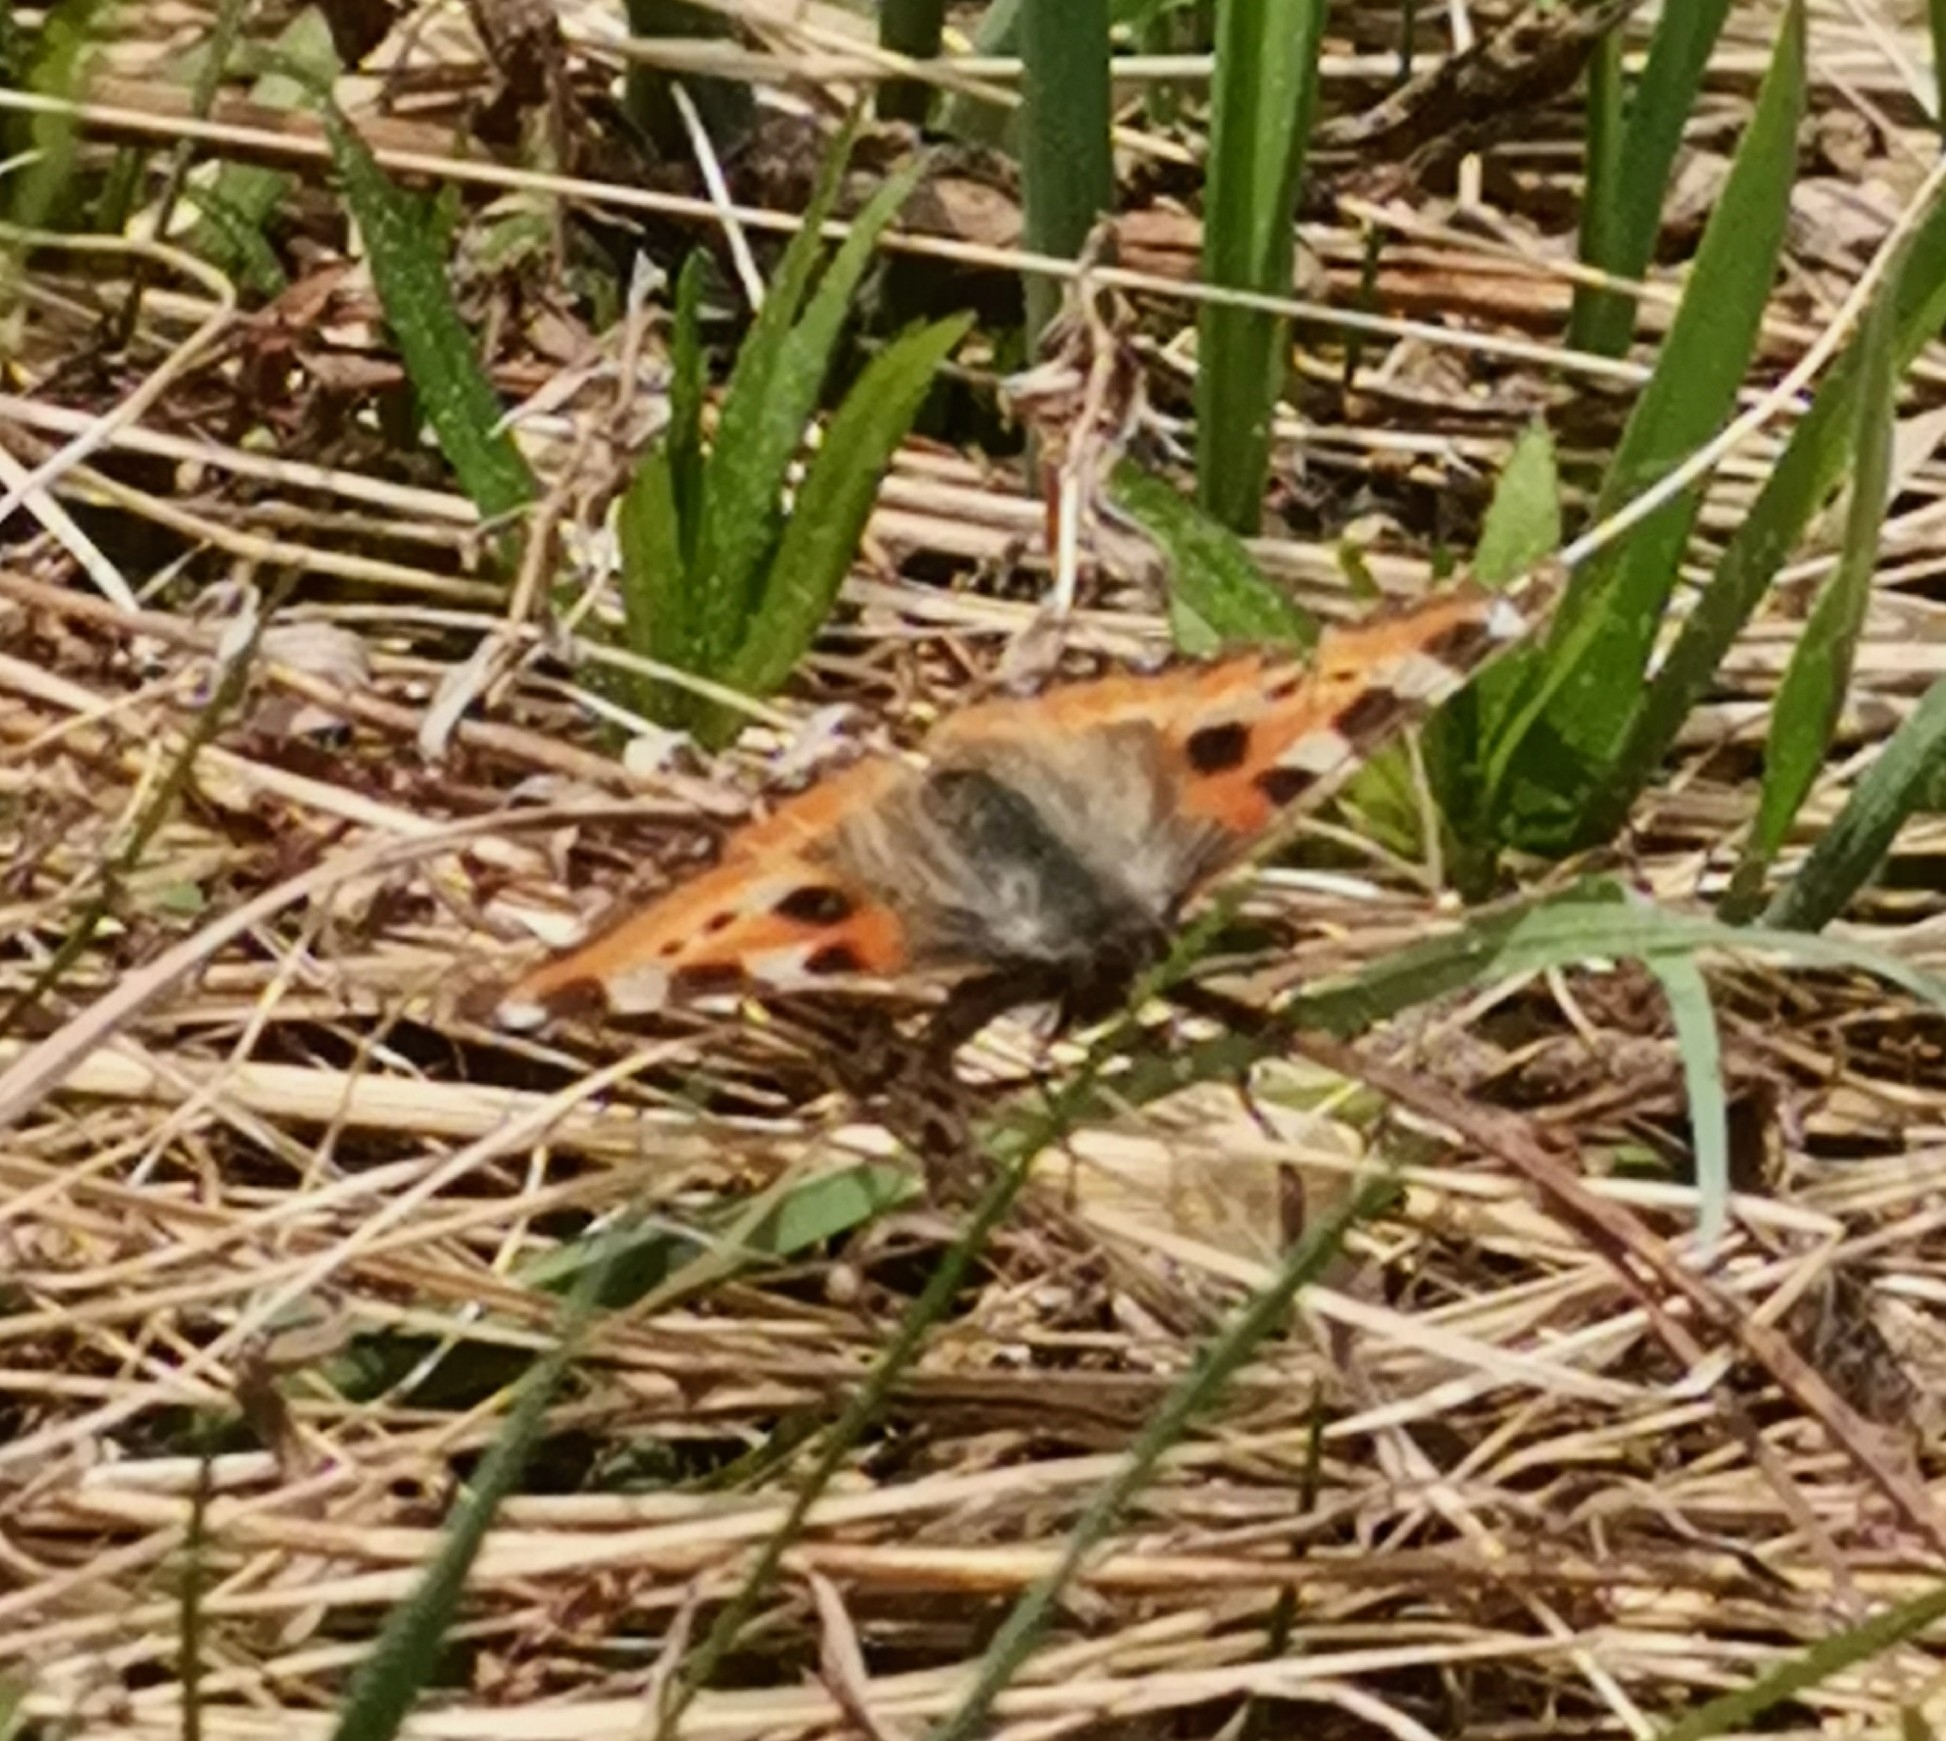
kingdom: Animalia
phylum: Arthropoda
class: Insecta
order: Lepidoptera
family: Nymphalidae
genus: Aglais
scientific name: Aglais urticae
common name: Small tortoiseshell
